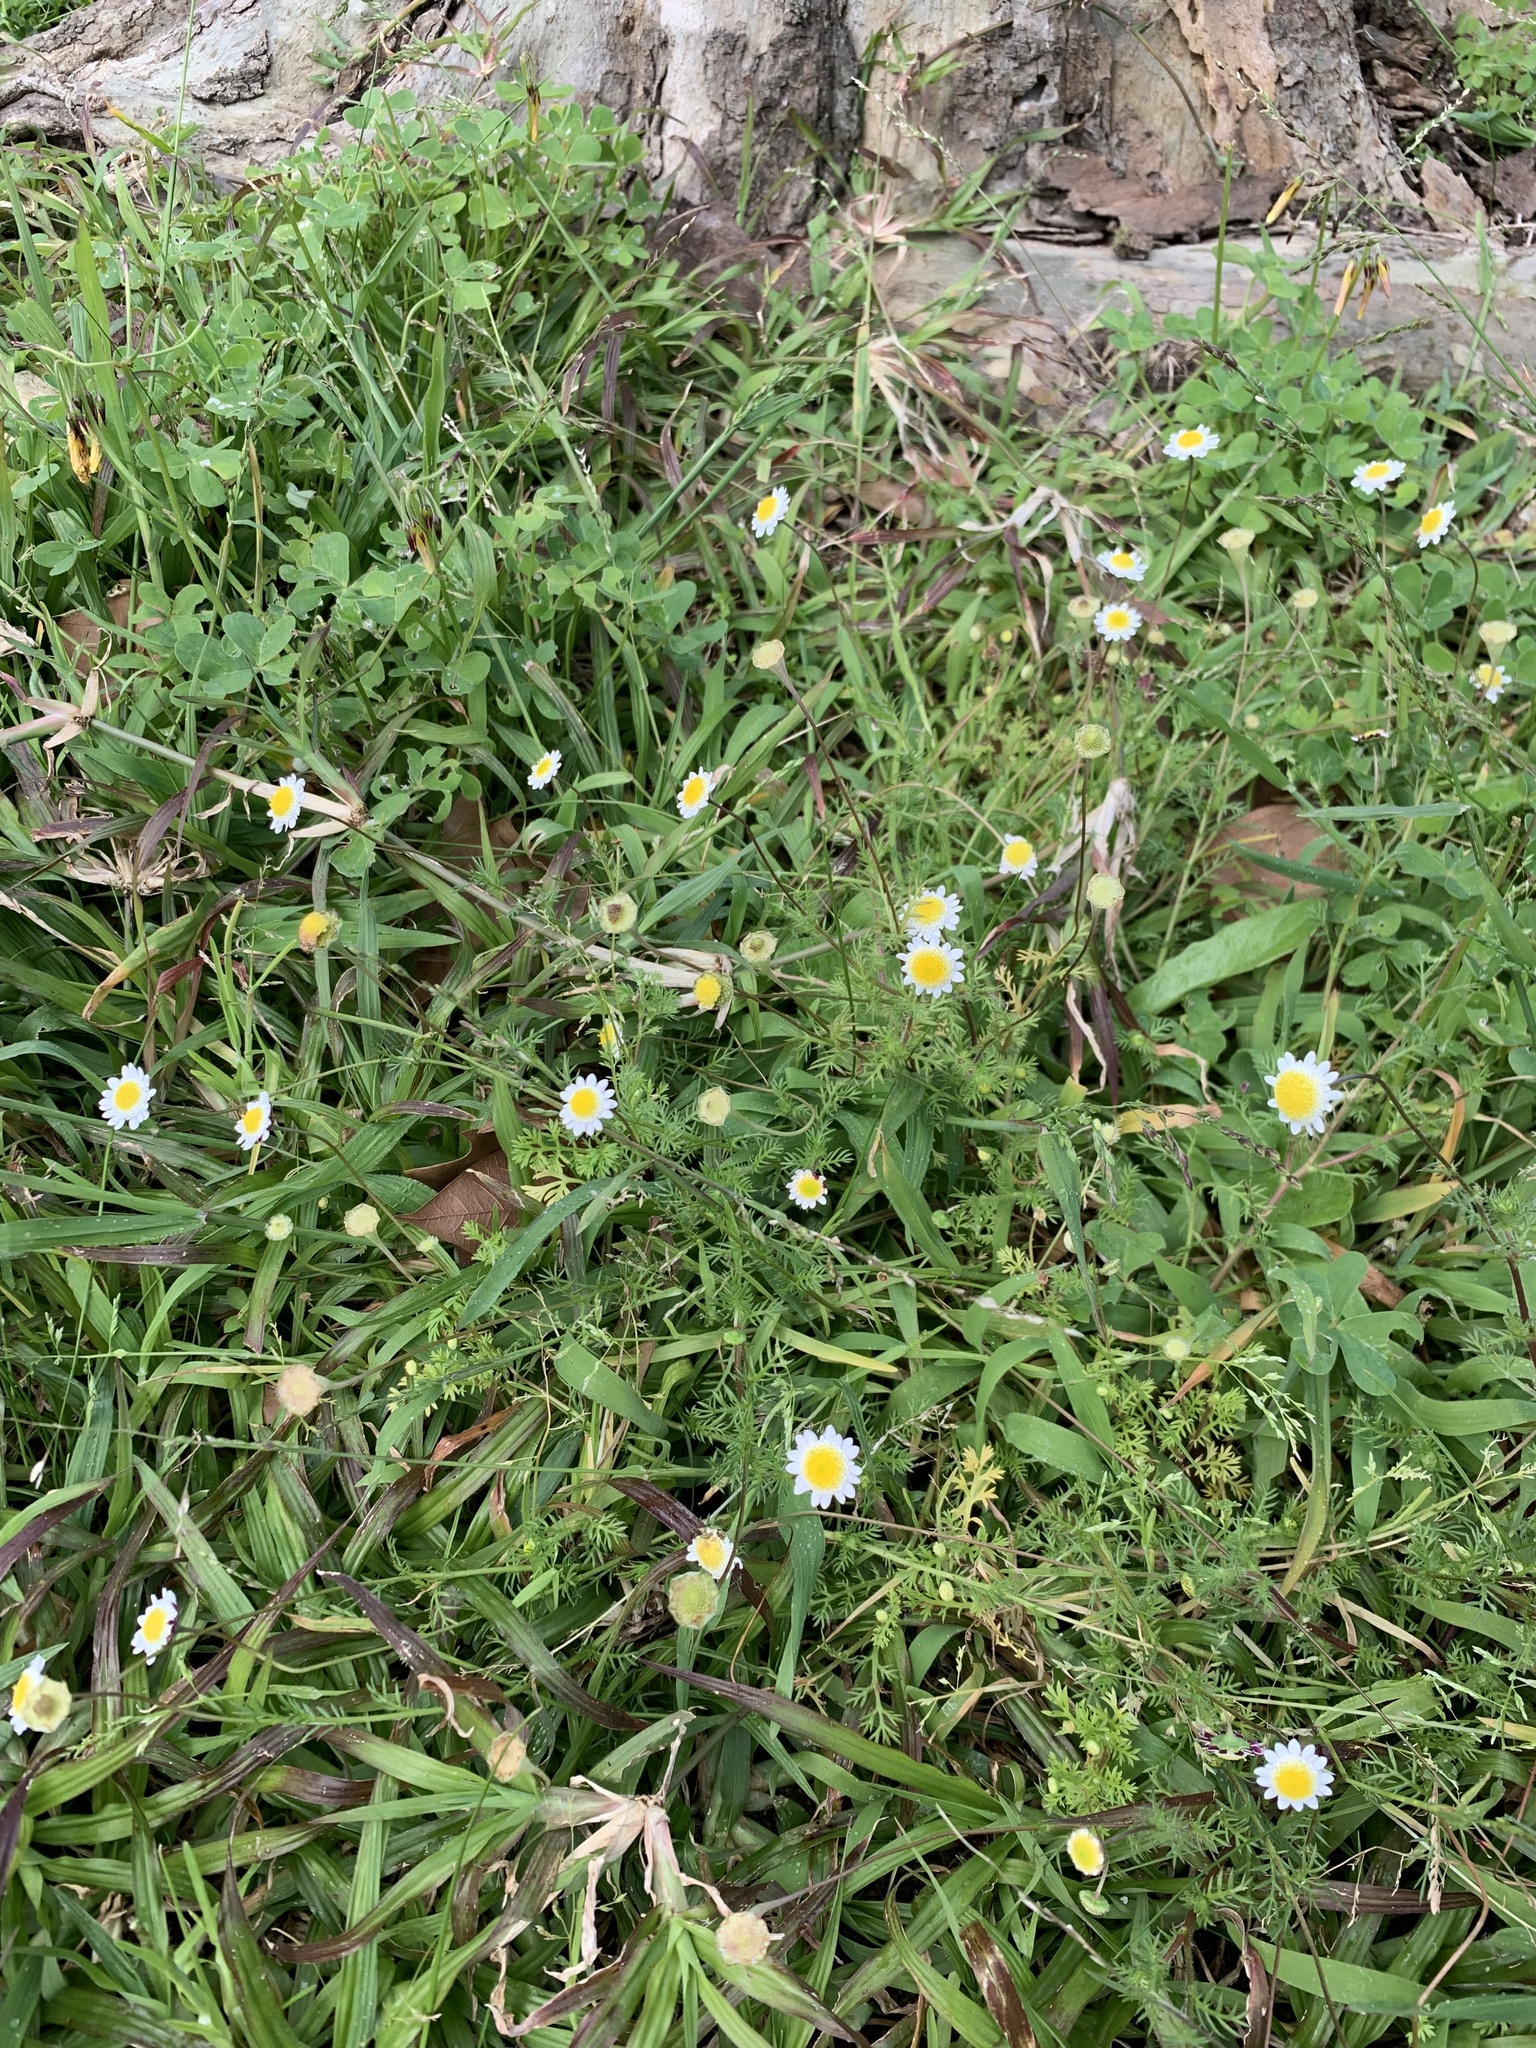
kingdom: Plantae
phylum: Tracheophyta
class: Magnoliopsida
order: Asterales
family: Asteraceae
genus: Cotula
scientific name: Cotula turbinata
